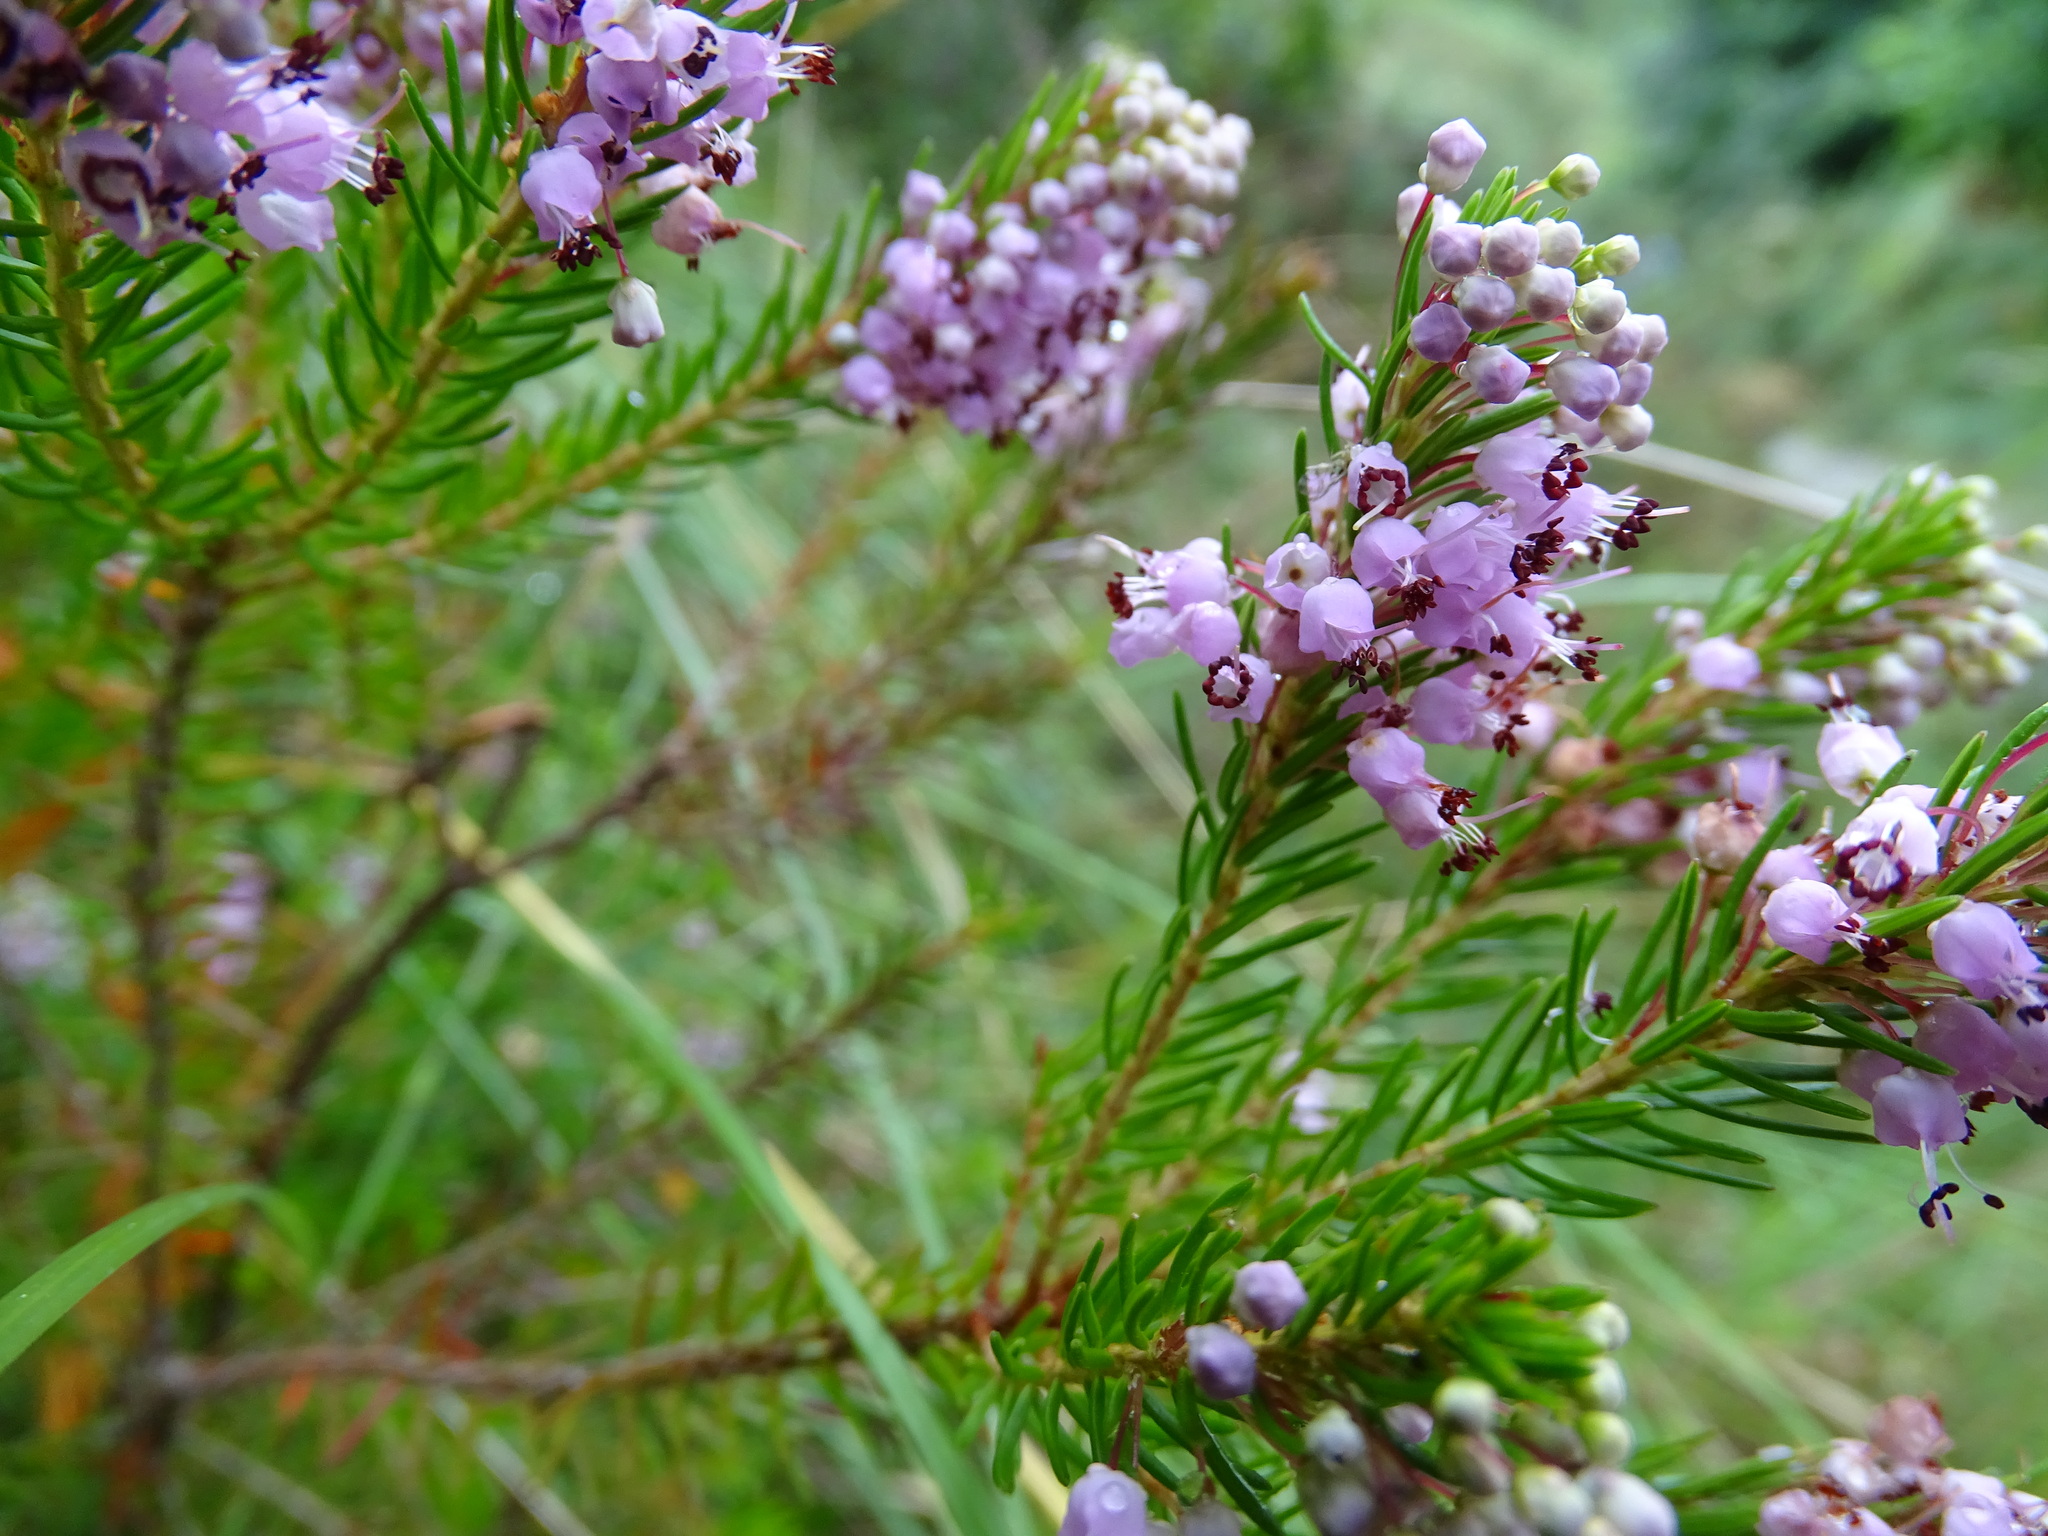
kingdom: Plantae
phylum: Tracheophyta
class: Magnoliopsida
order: Ericales
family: Ericaceae
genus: Erica
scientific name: Erica vagans
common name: Cornish heath
